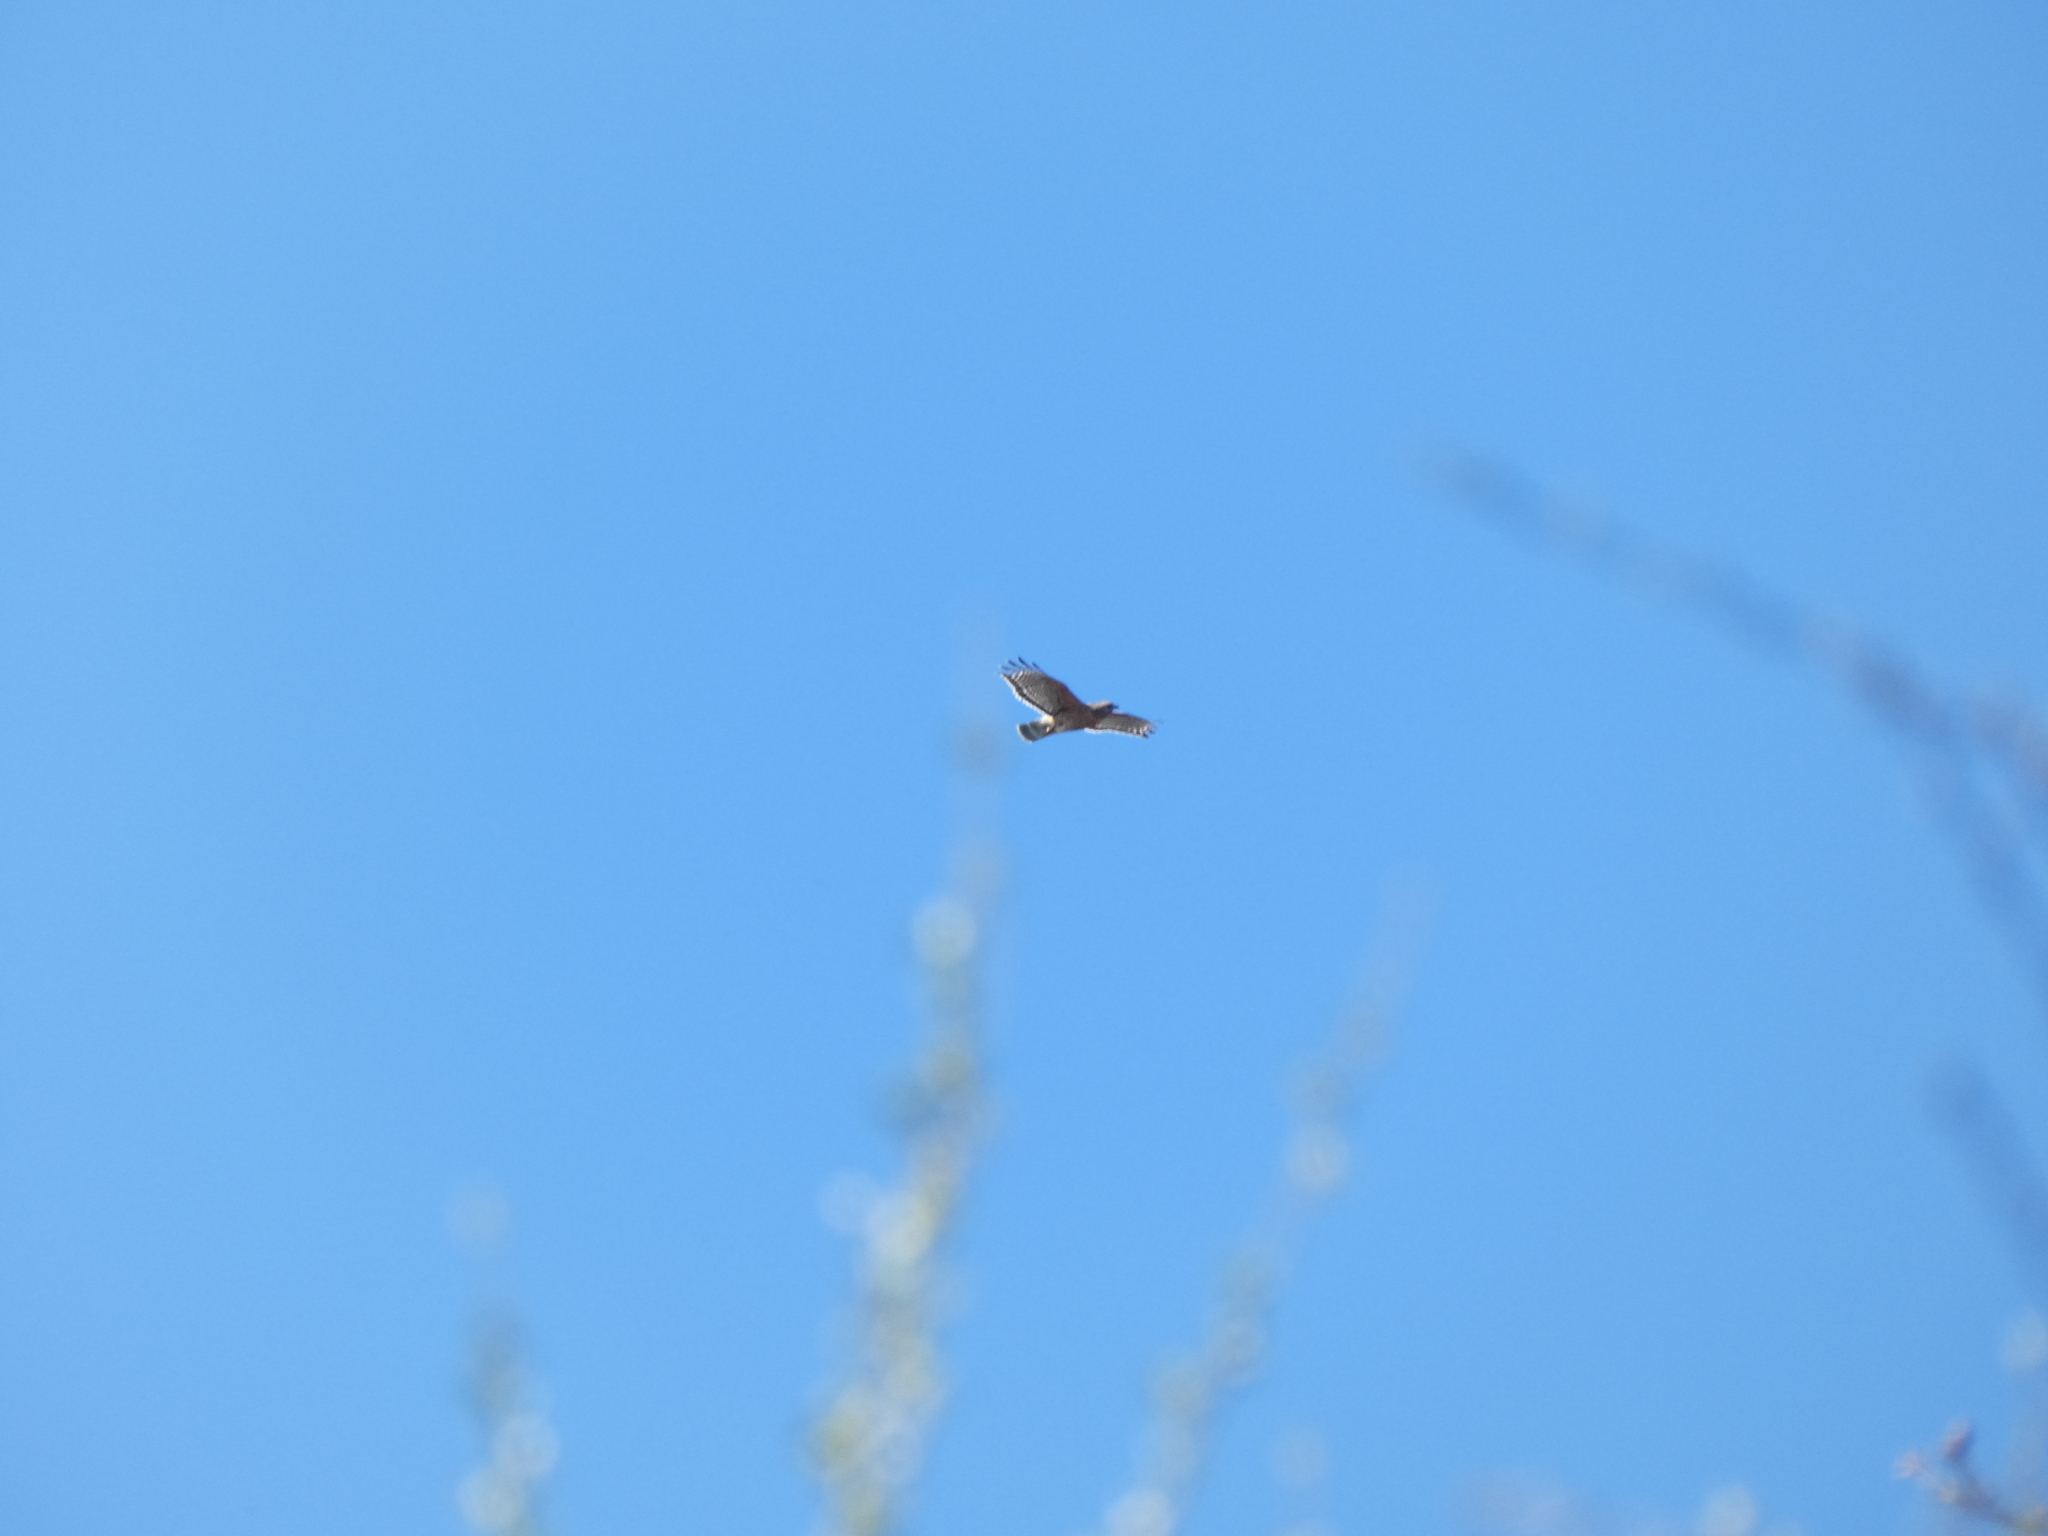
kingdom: Animalia
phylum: Chordata
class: Aves
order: Accipitriformes
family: Accipitridae
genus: Buteo
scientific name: Buteo lineatus
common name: Red-shouldered hawk
